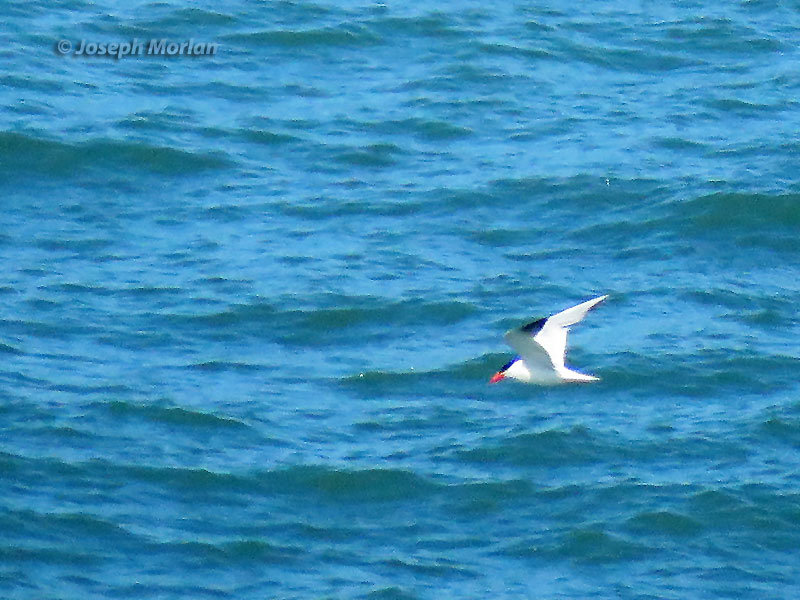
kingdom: Animalia
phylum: Chordata
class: Aves
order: Charadriiformes
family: Laridae
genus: Hydroprogne
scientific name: Hydroprogne caspia
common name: Caspian tern
